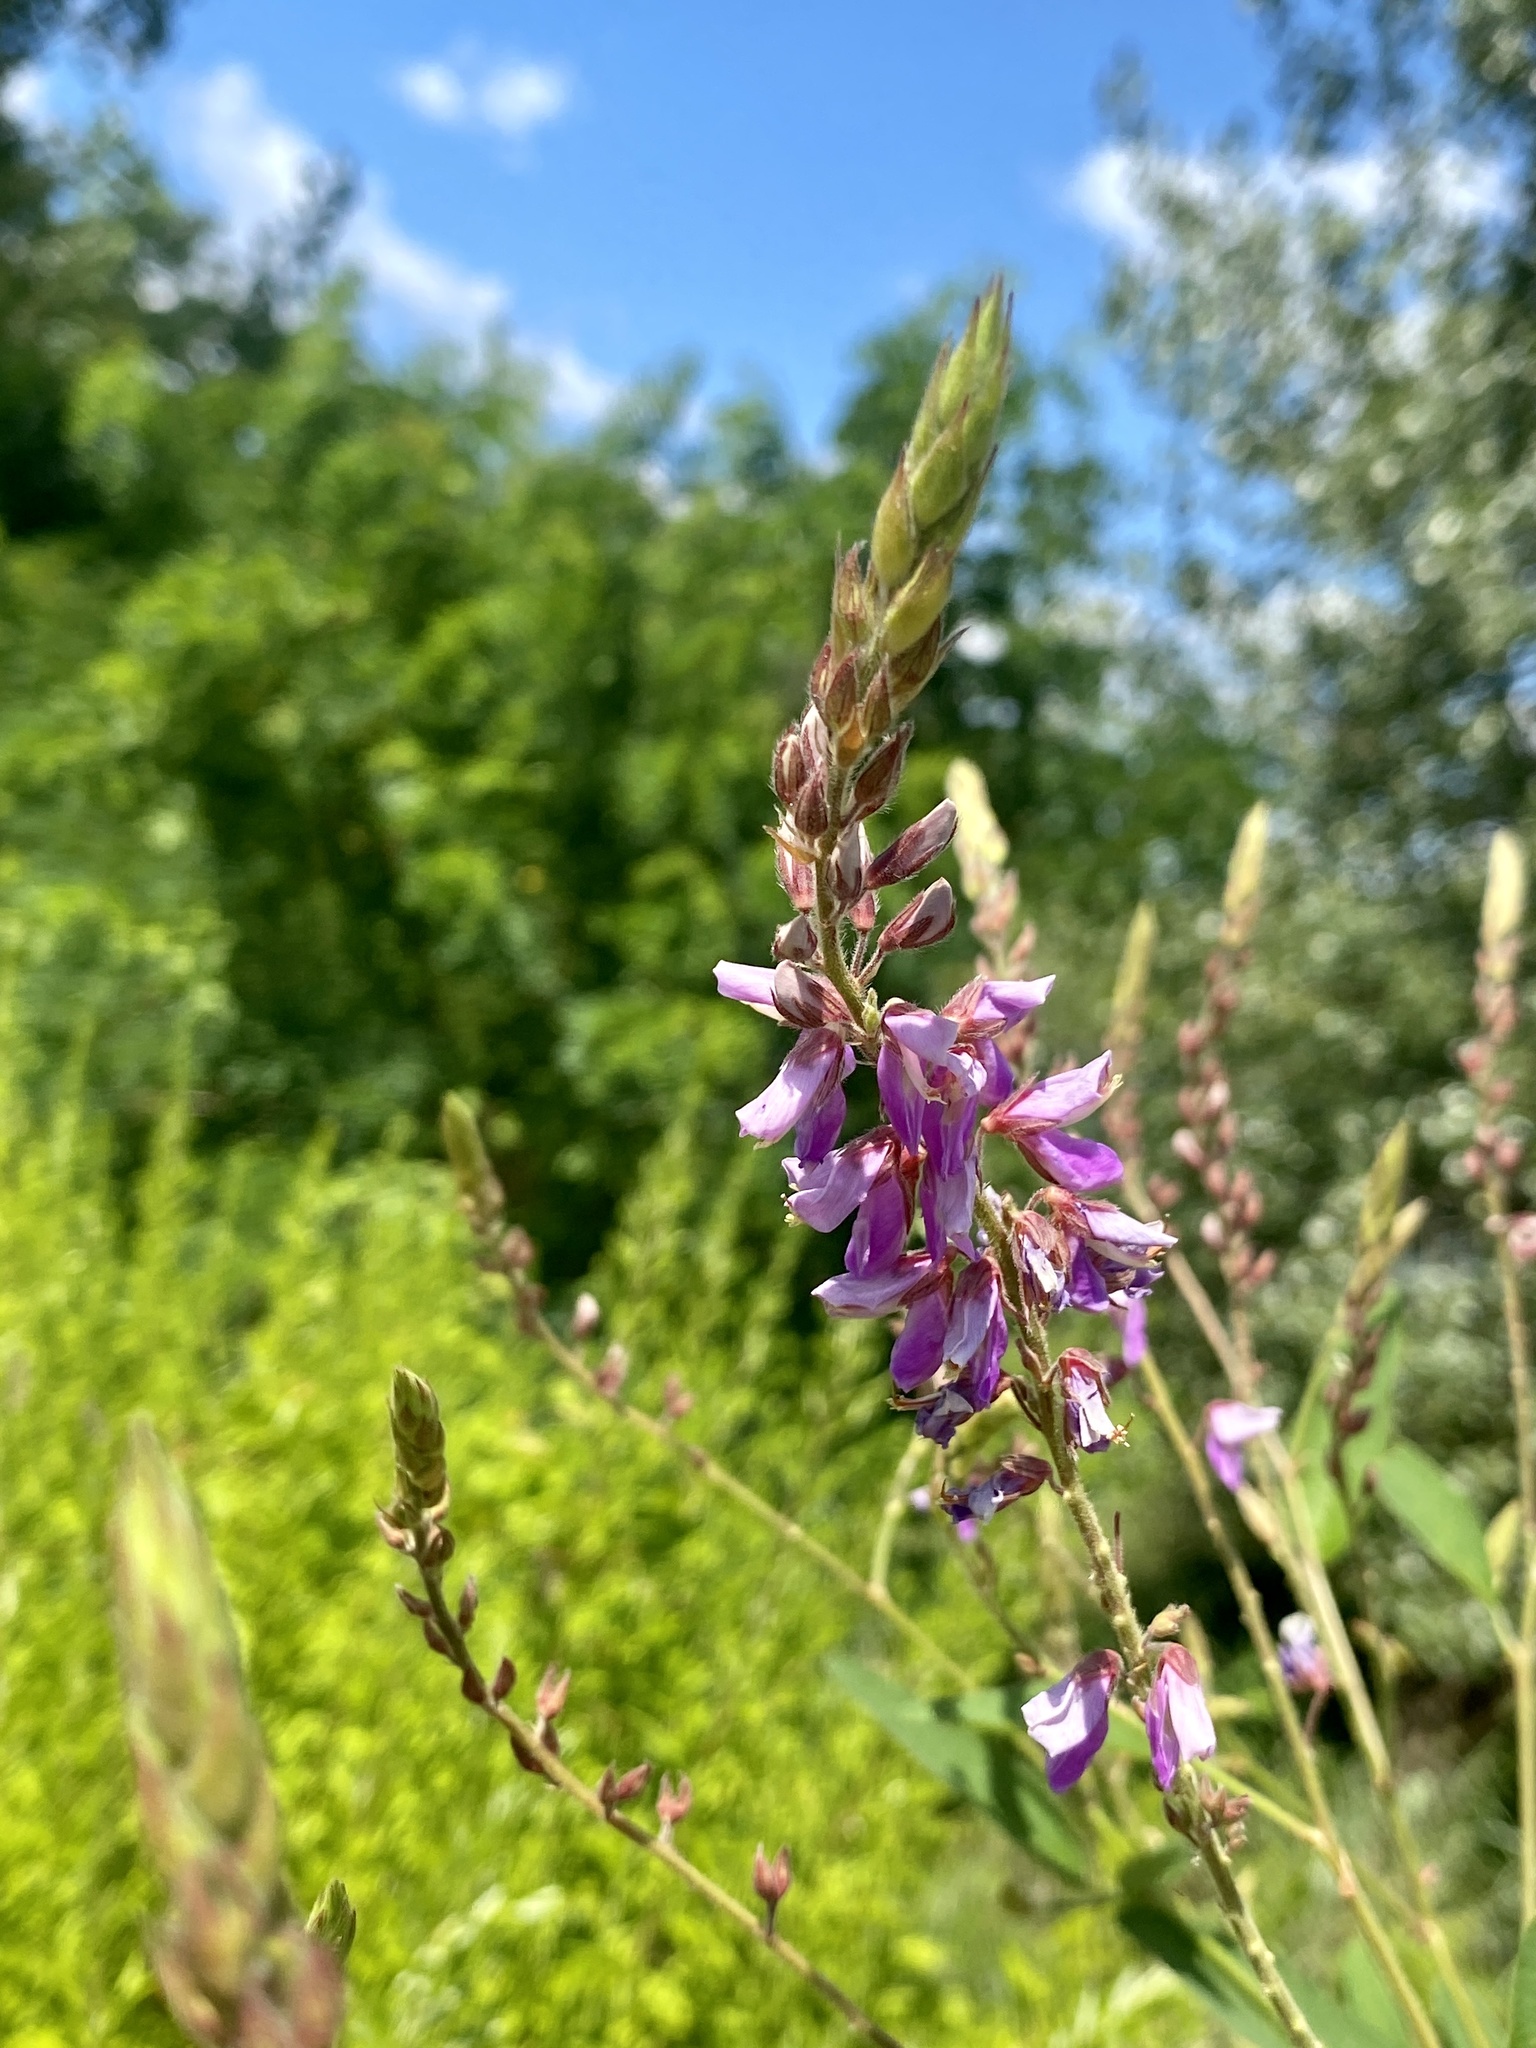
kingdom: Plantae
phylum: Tracheophyta
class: Magnoliopsida
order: Fabales
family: Fabaceae
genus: Desmodium
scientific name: Desmodium canadense
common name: Canada tick-trefoil
